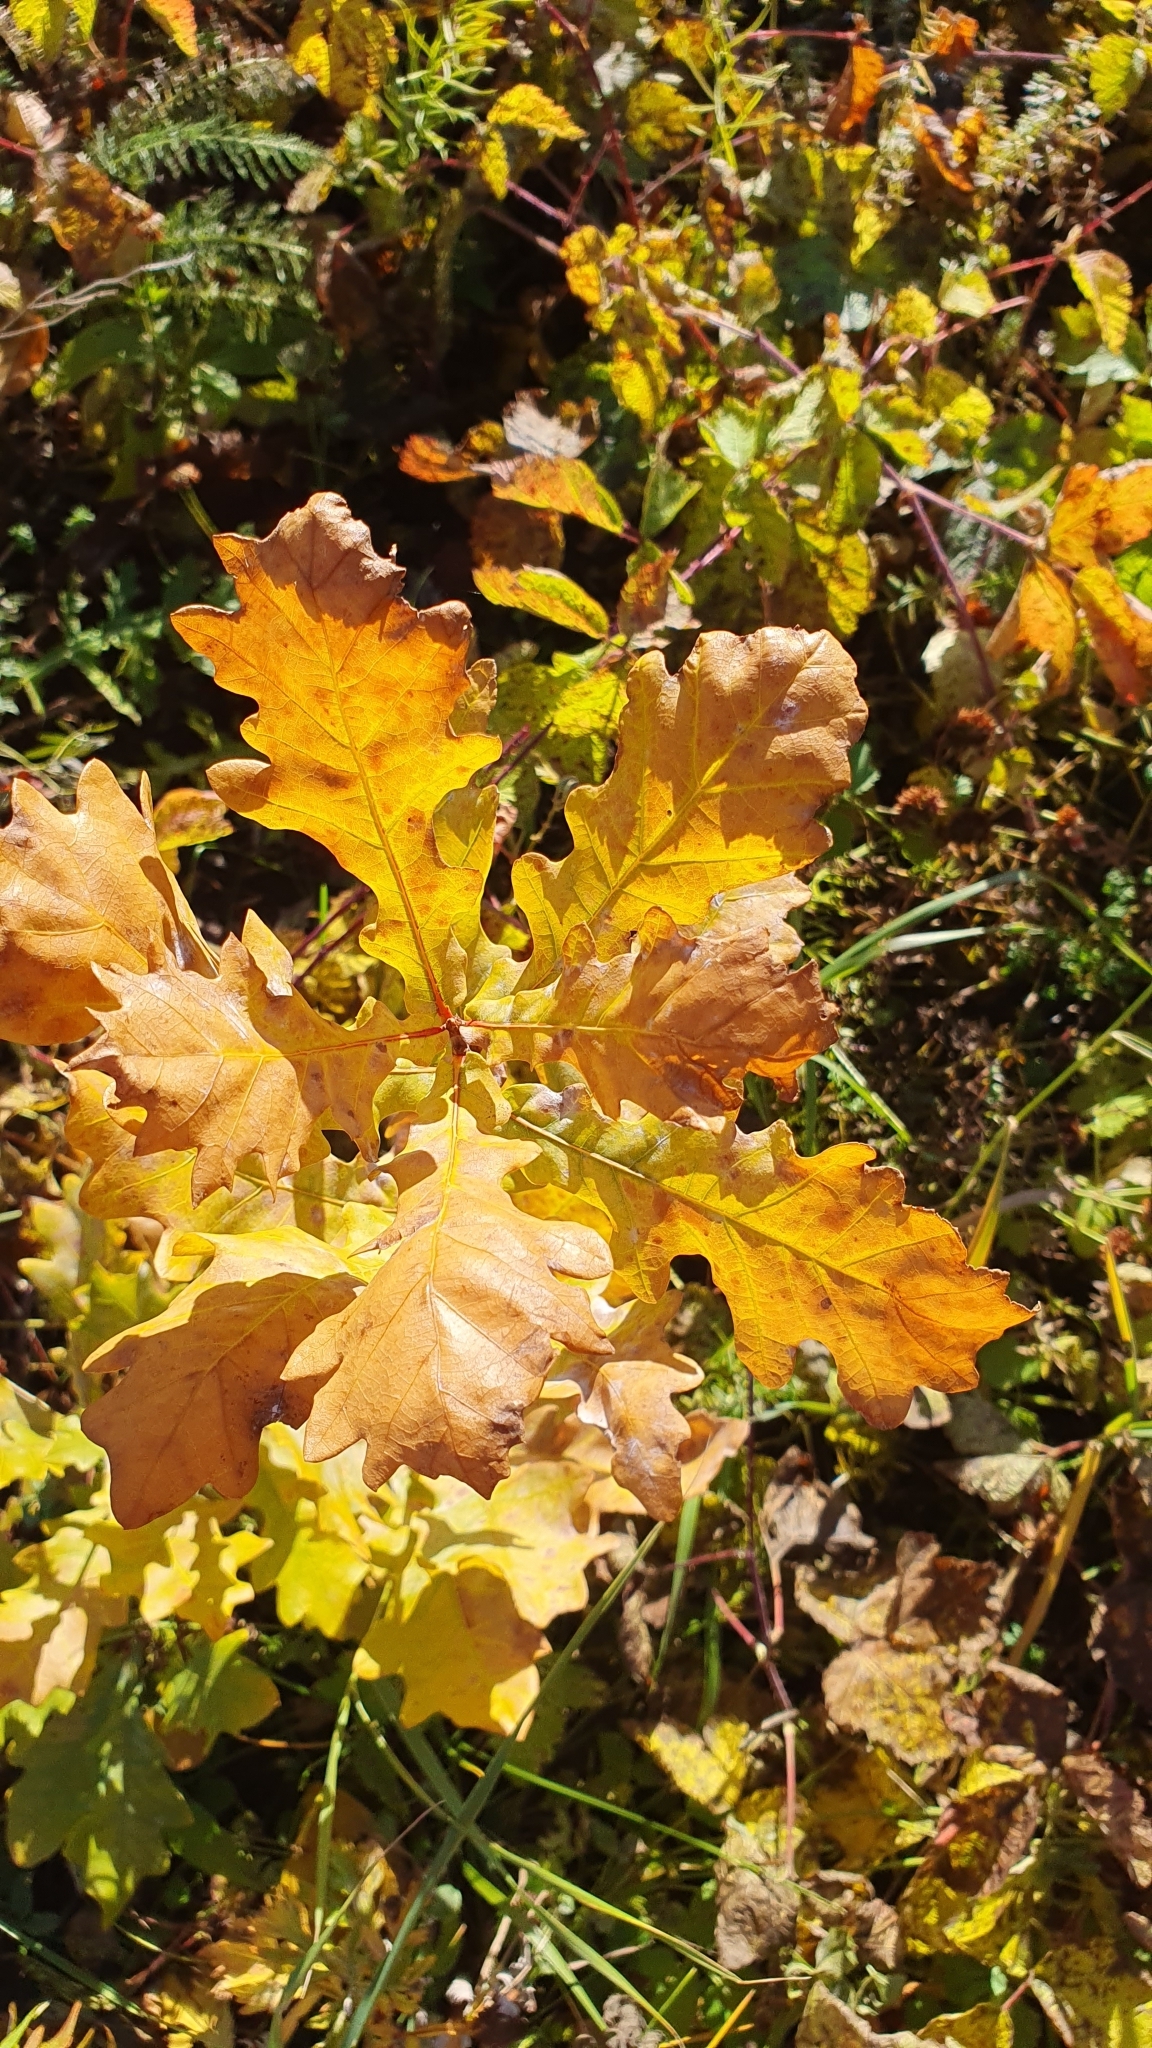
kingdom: Plantae
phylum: Tracheophyta
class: Magnoliopsida
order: Fagales
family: Fagaceae
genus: Quercus
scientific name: Quercus robur
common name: Pedunculate oak
